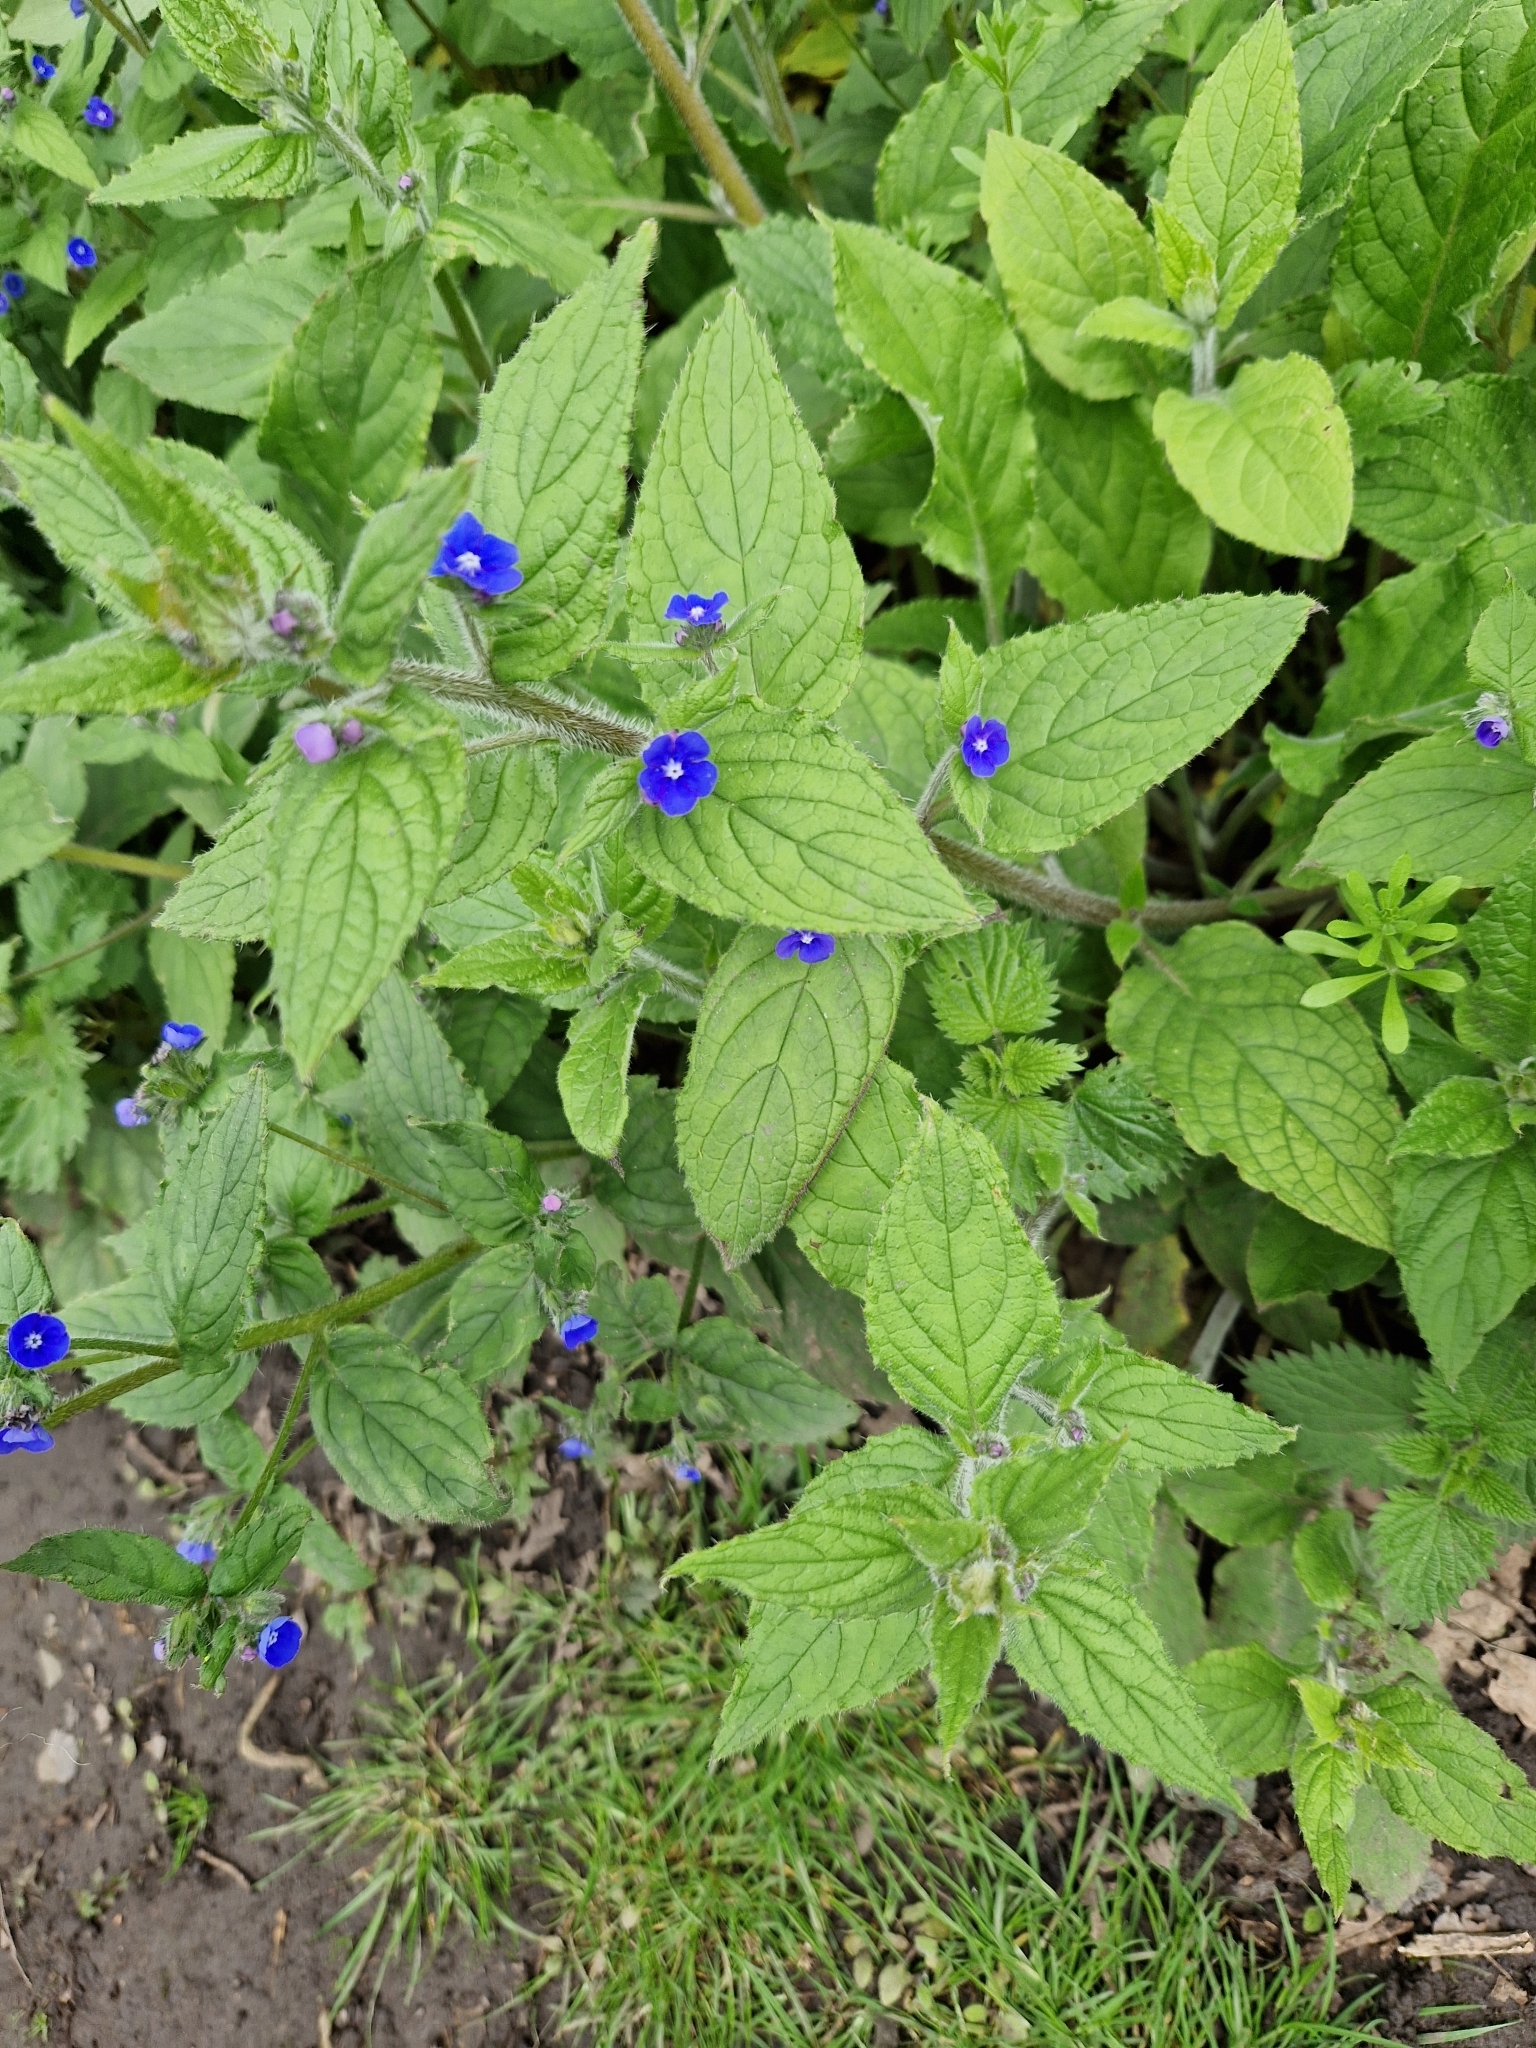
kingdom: Plantae
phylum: Tracheophyta
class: Magnoliopsida
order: Boraginales
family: Boraginaceae
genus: Pentaglottis
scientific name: Pentaglottis sempervirens
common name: Green alkanet
